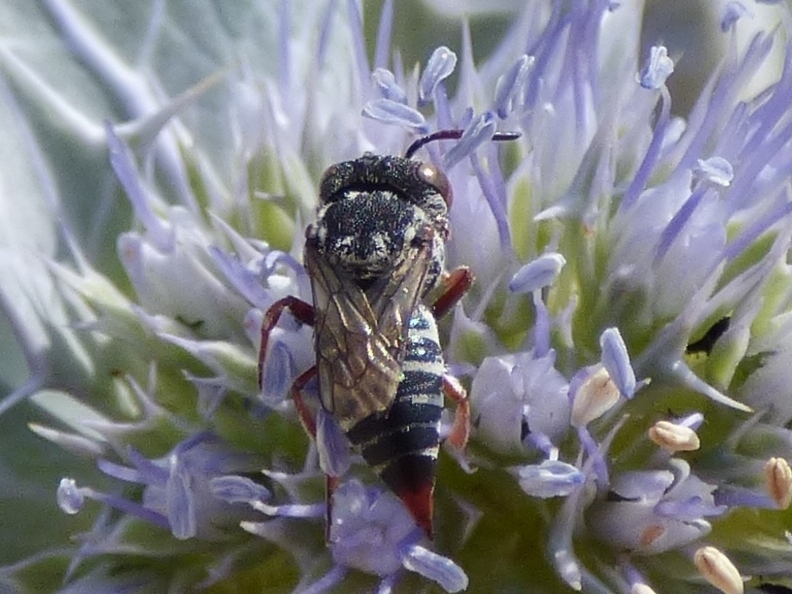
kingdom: Animalia
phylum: Arthropoda
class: Insecta
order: Hymenoptera
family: Megachilidae
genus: Coelioxys
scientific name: Coelioxys brevis
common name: Red-legged sharp-tail bee
